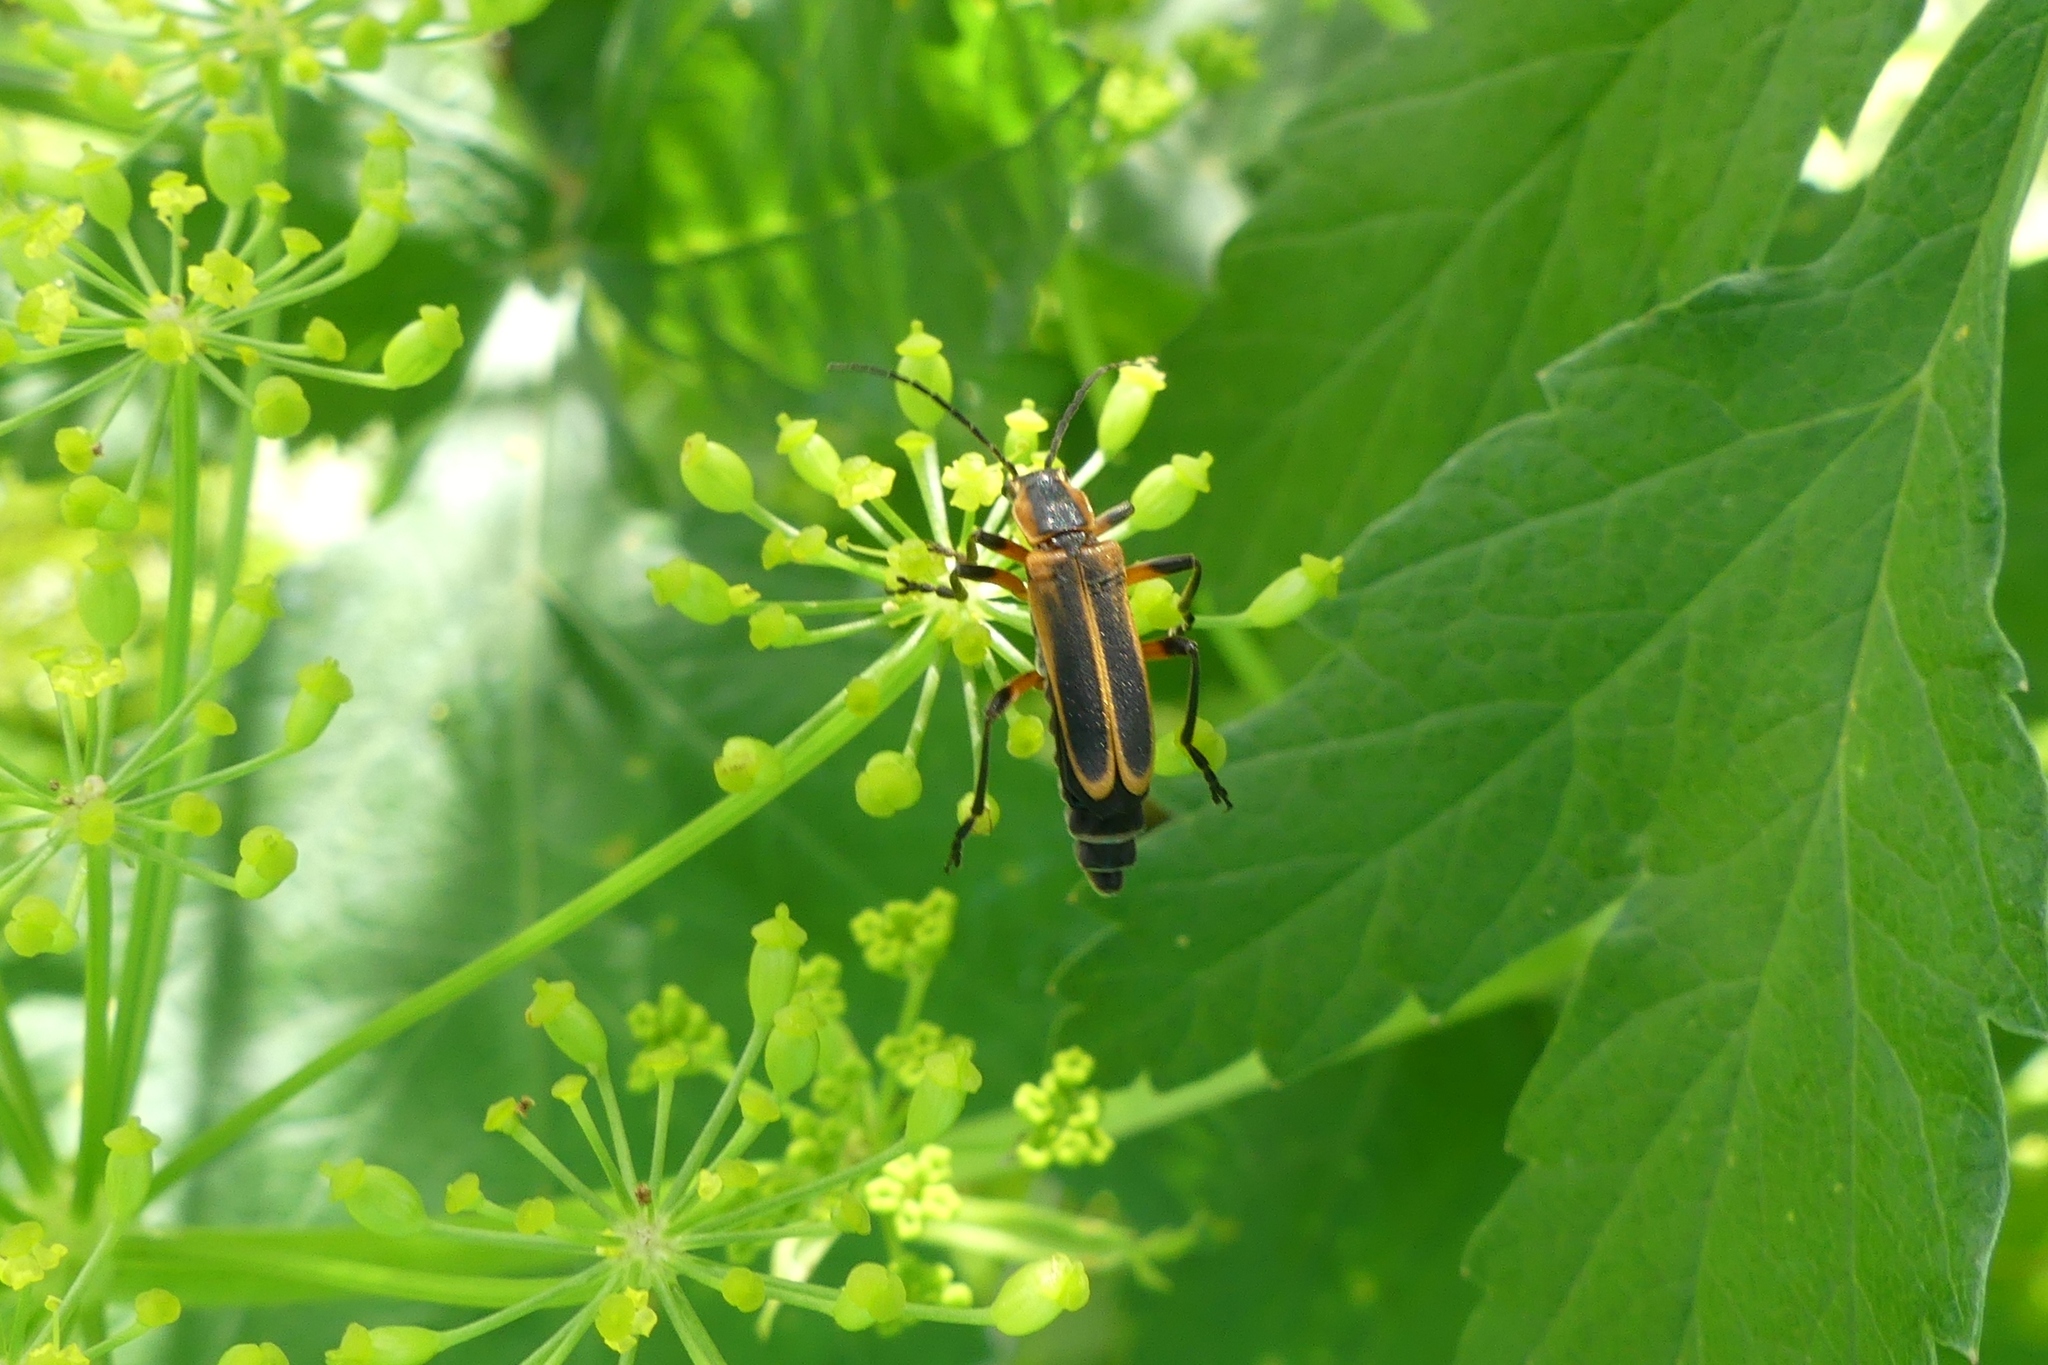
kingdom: Animalia
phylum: Arthropoda
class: Insecta
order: Coleoptera
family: Cantharidae
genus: Chauliognathus
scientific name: Chauliognathus marginatus
